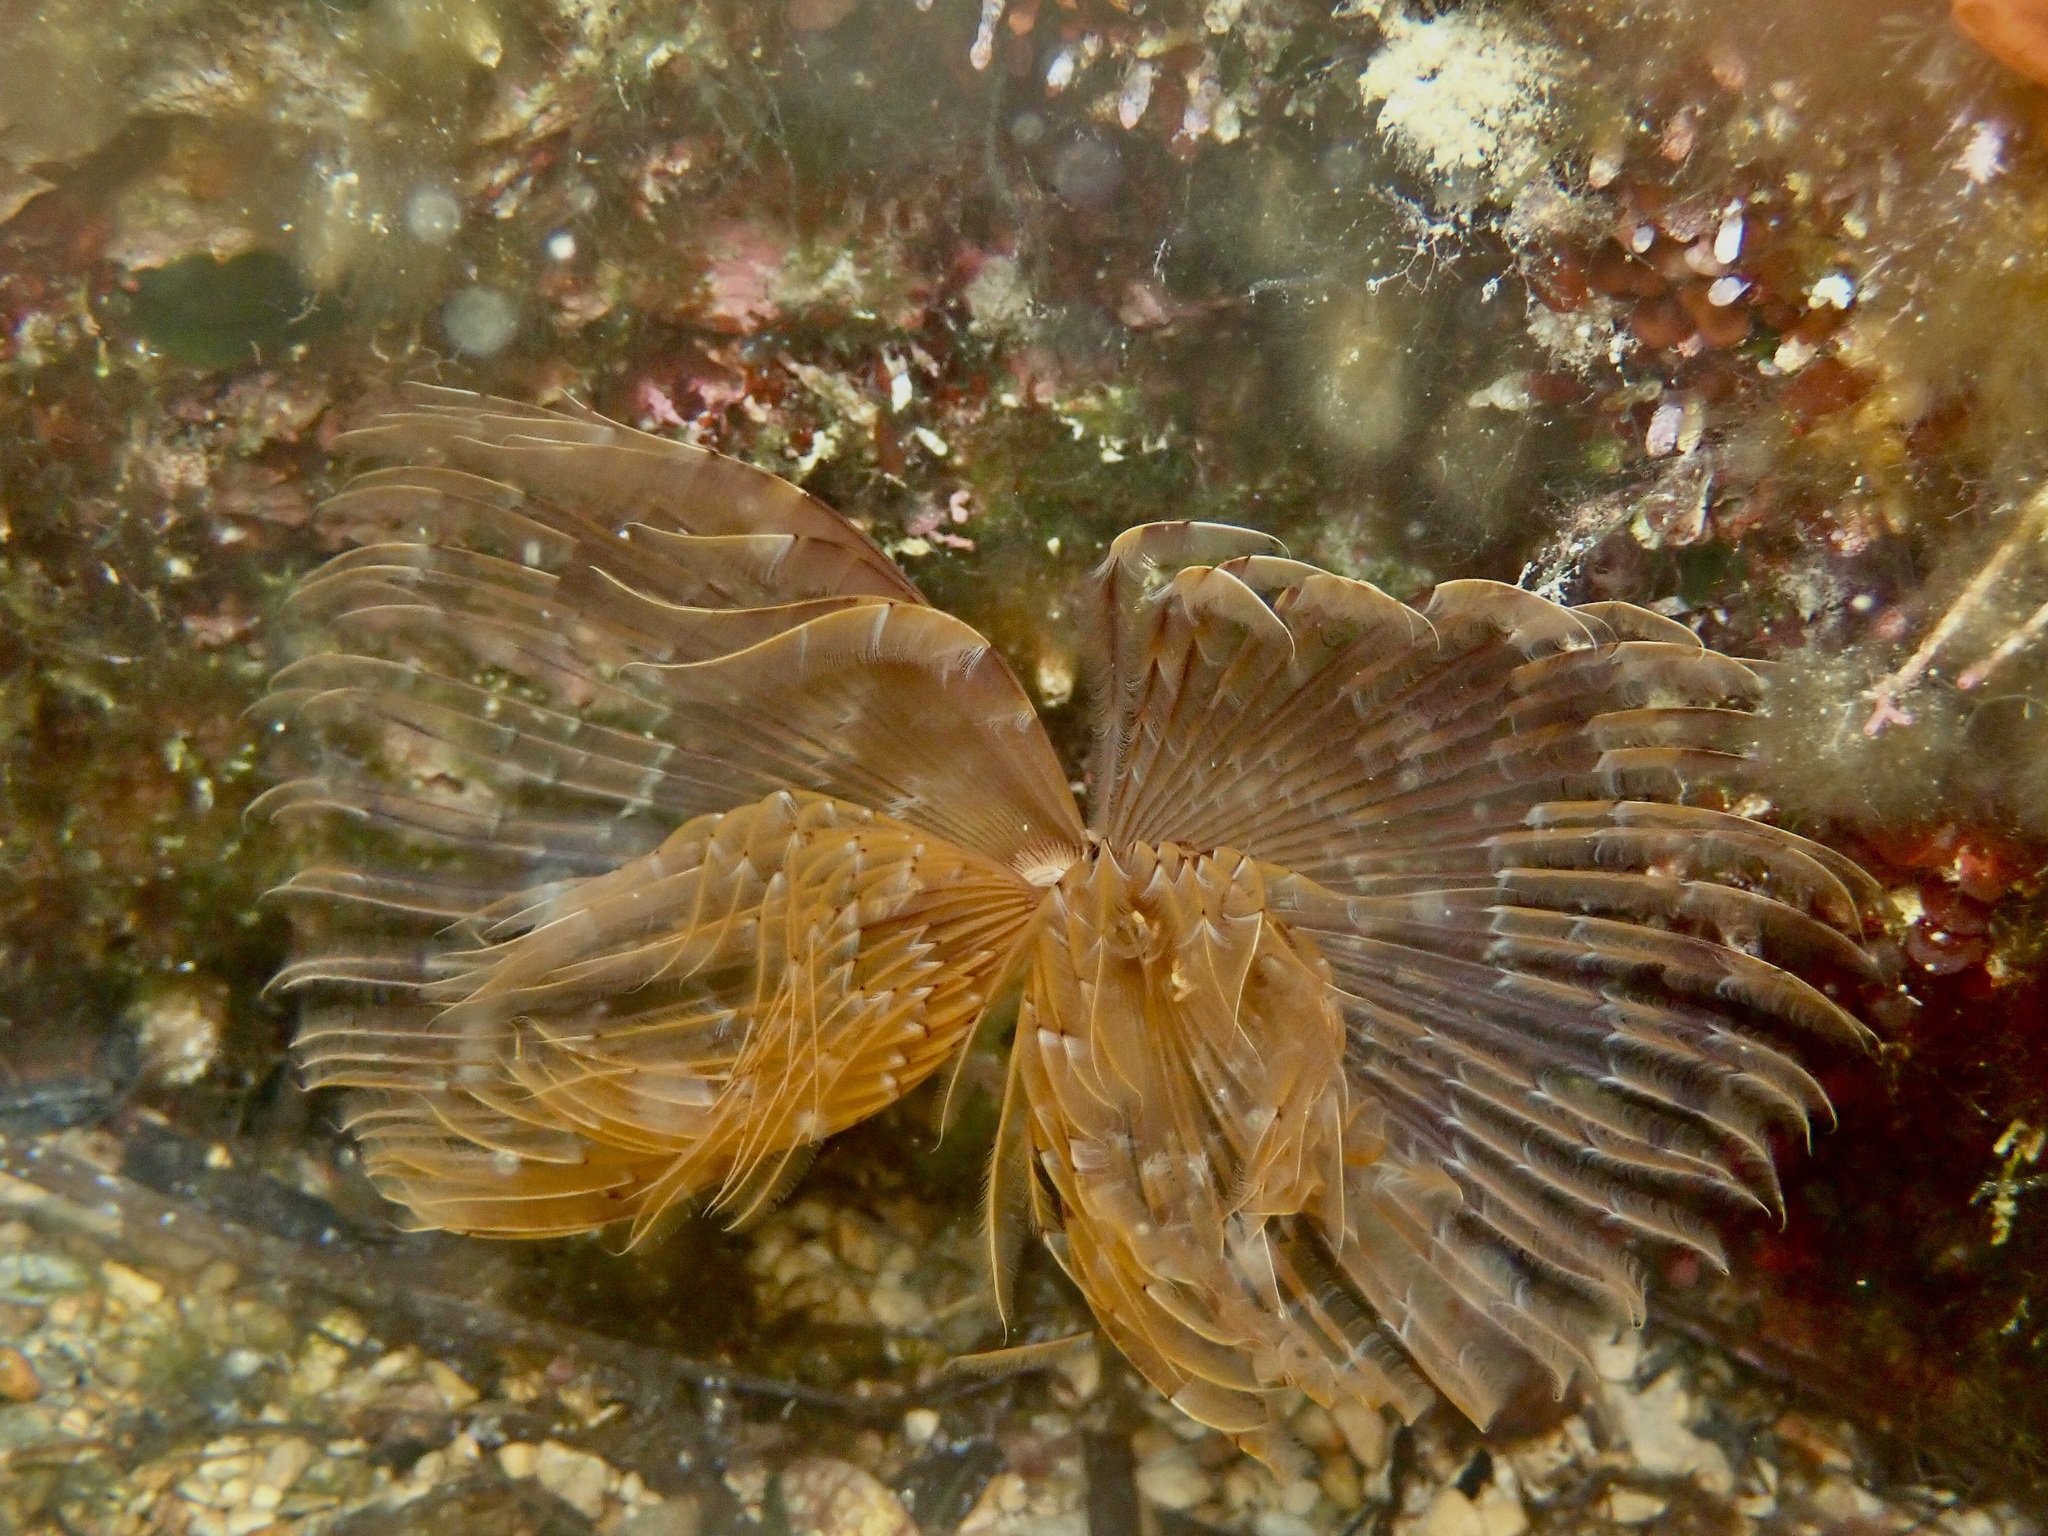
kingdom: Animalia
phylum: Annelida
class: Polychaeta
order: Sabellida
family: Sabellidae
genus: Bispira
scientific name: Bispira volutacornis
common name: Twin fan worm
